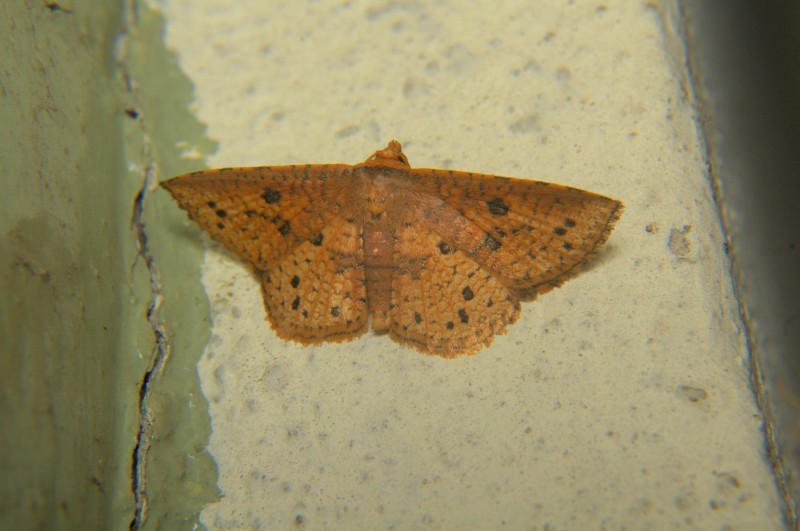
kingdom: Animalia
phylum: Arthropoda
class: Insecta
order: Lepidoptera
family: Thyrididae
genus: Striglina
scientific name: Striglina duplicifimbria
